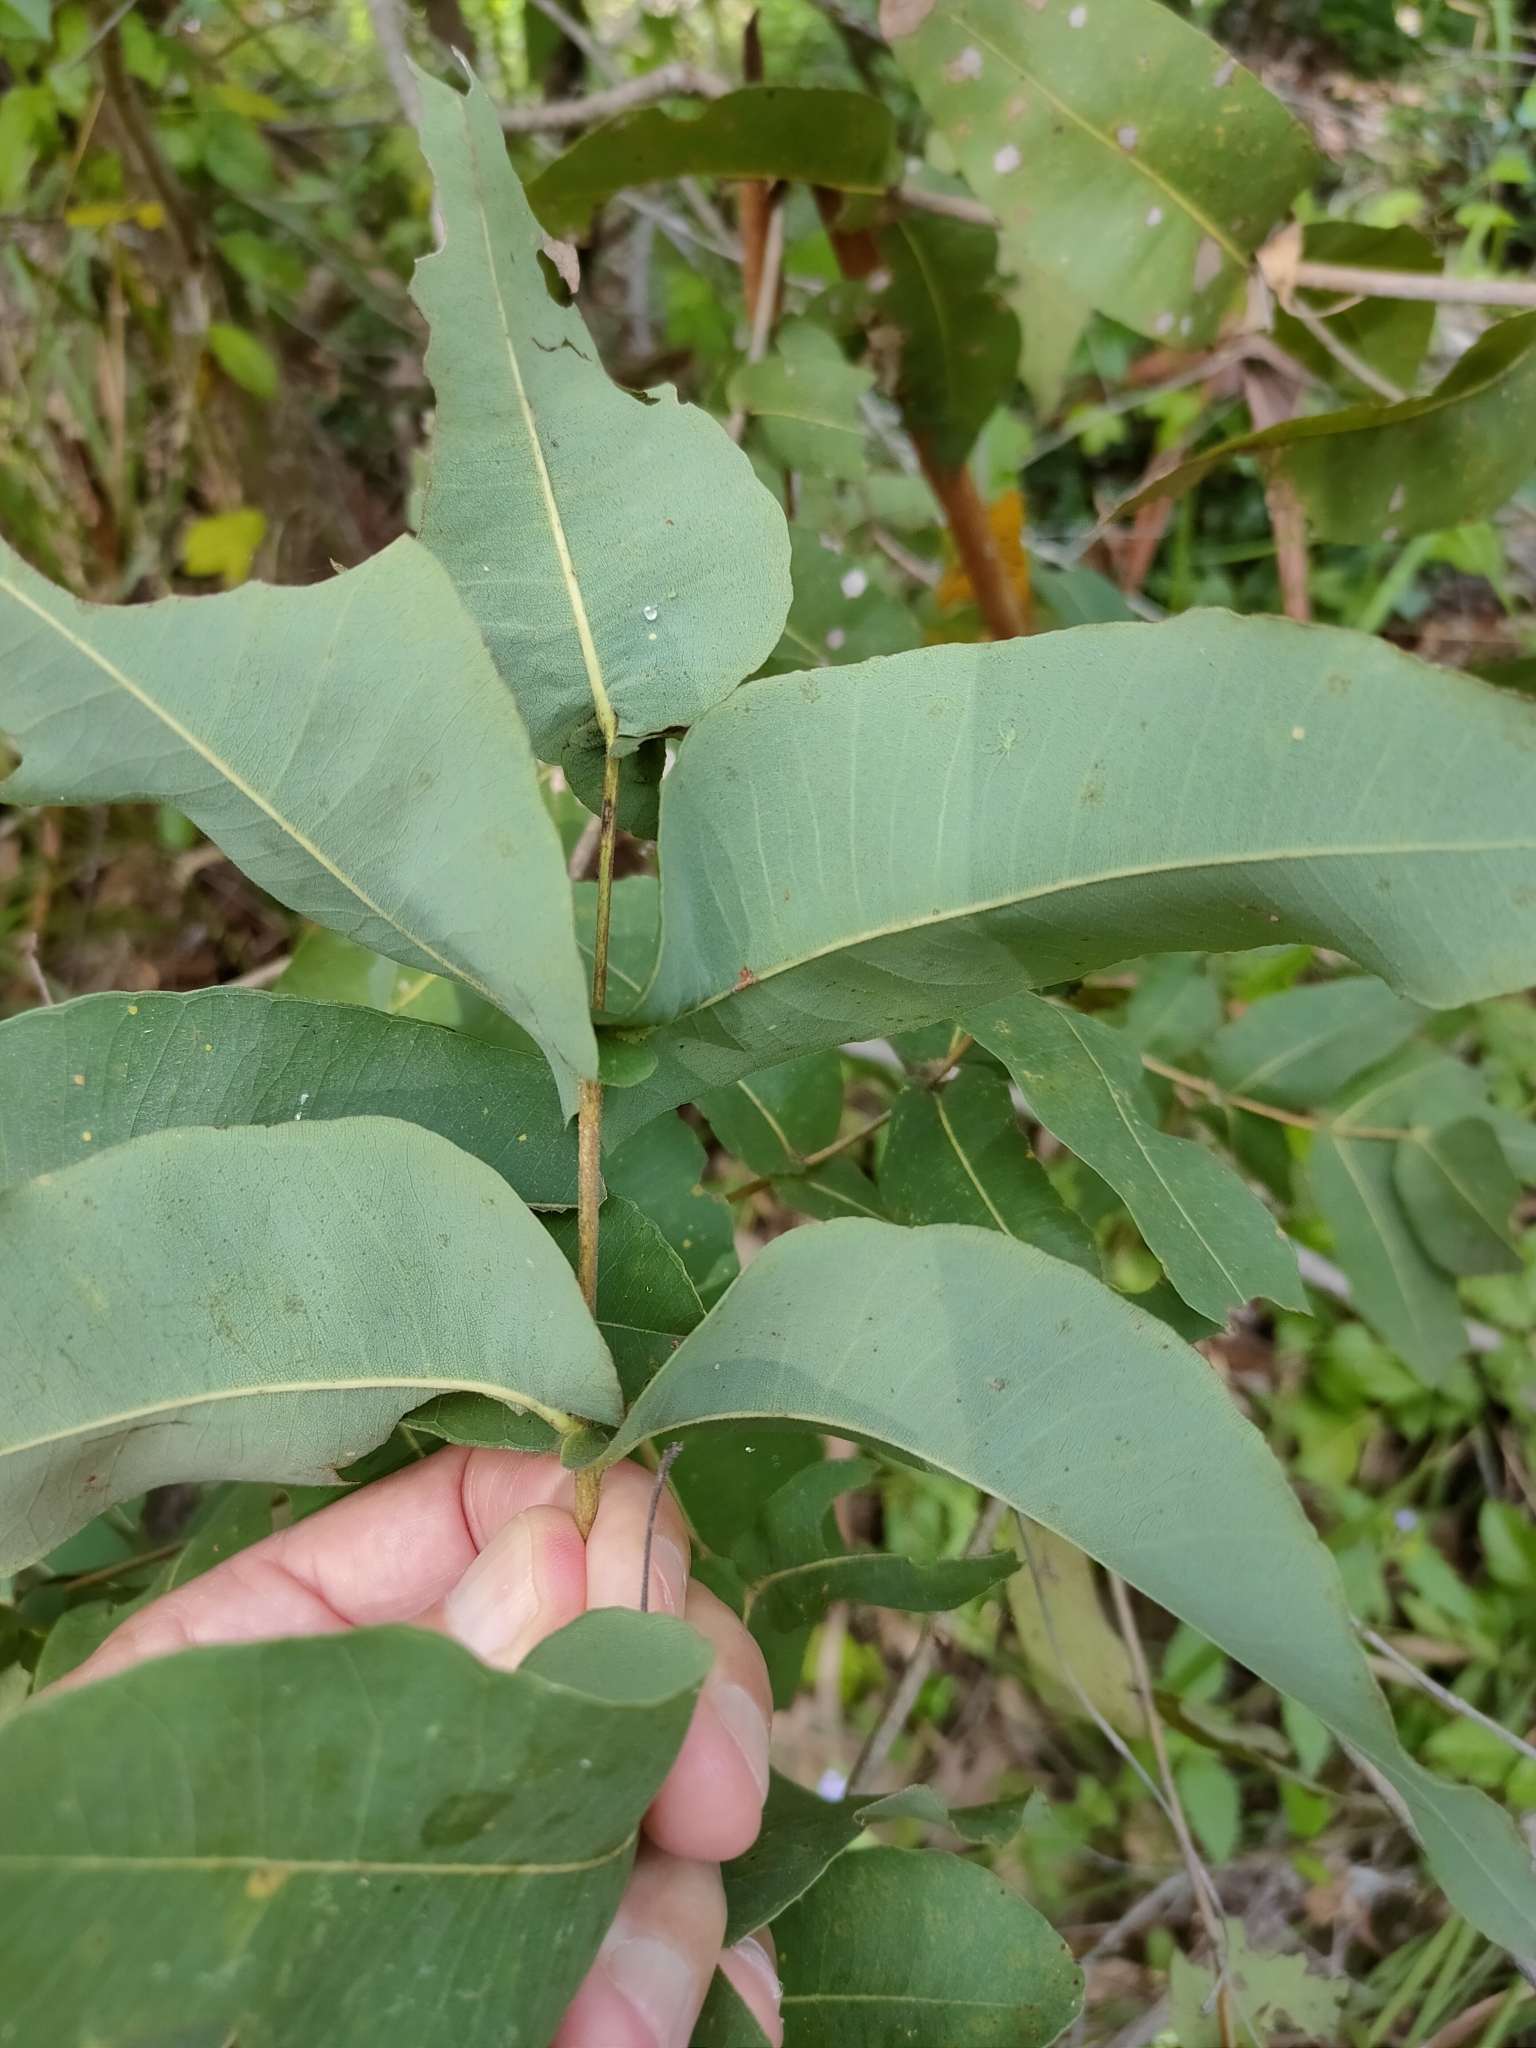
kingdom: Plantae
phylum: Tracheophyta
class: Magnoliopsida
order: Myrtales
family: Myrtaceae
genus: Angophora
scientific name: Angophora subvelutina
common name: Broad-leaved apple
